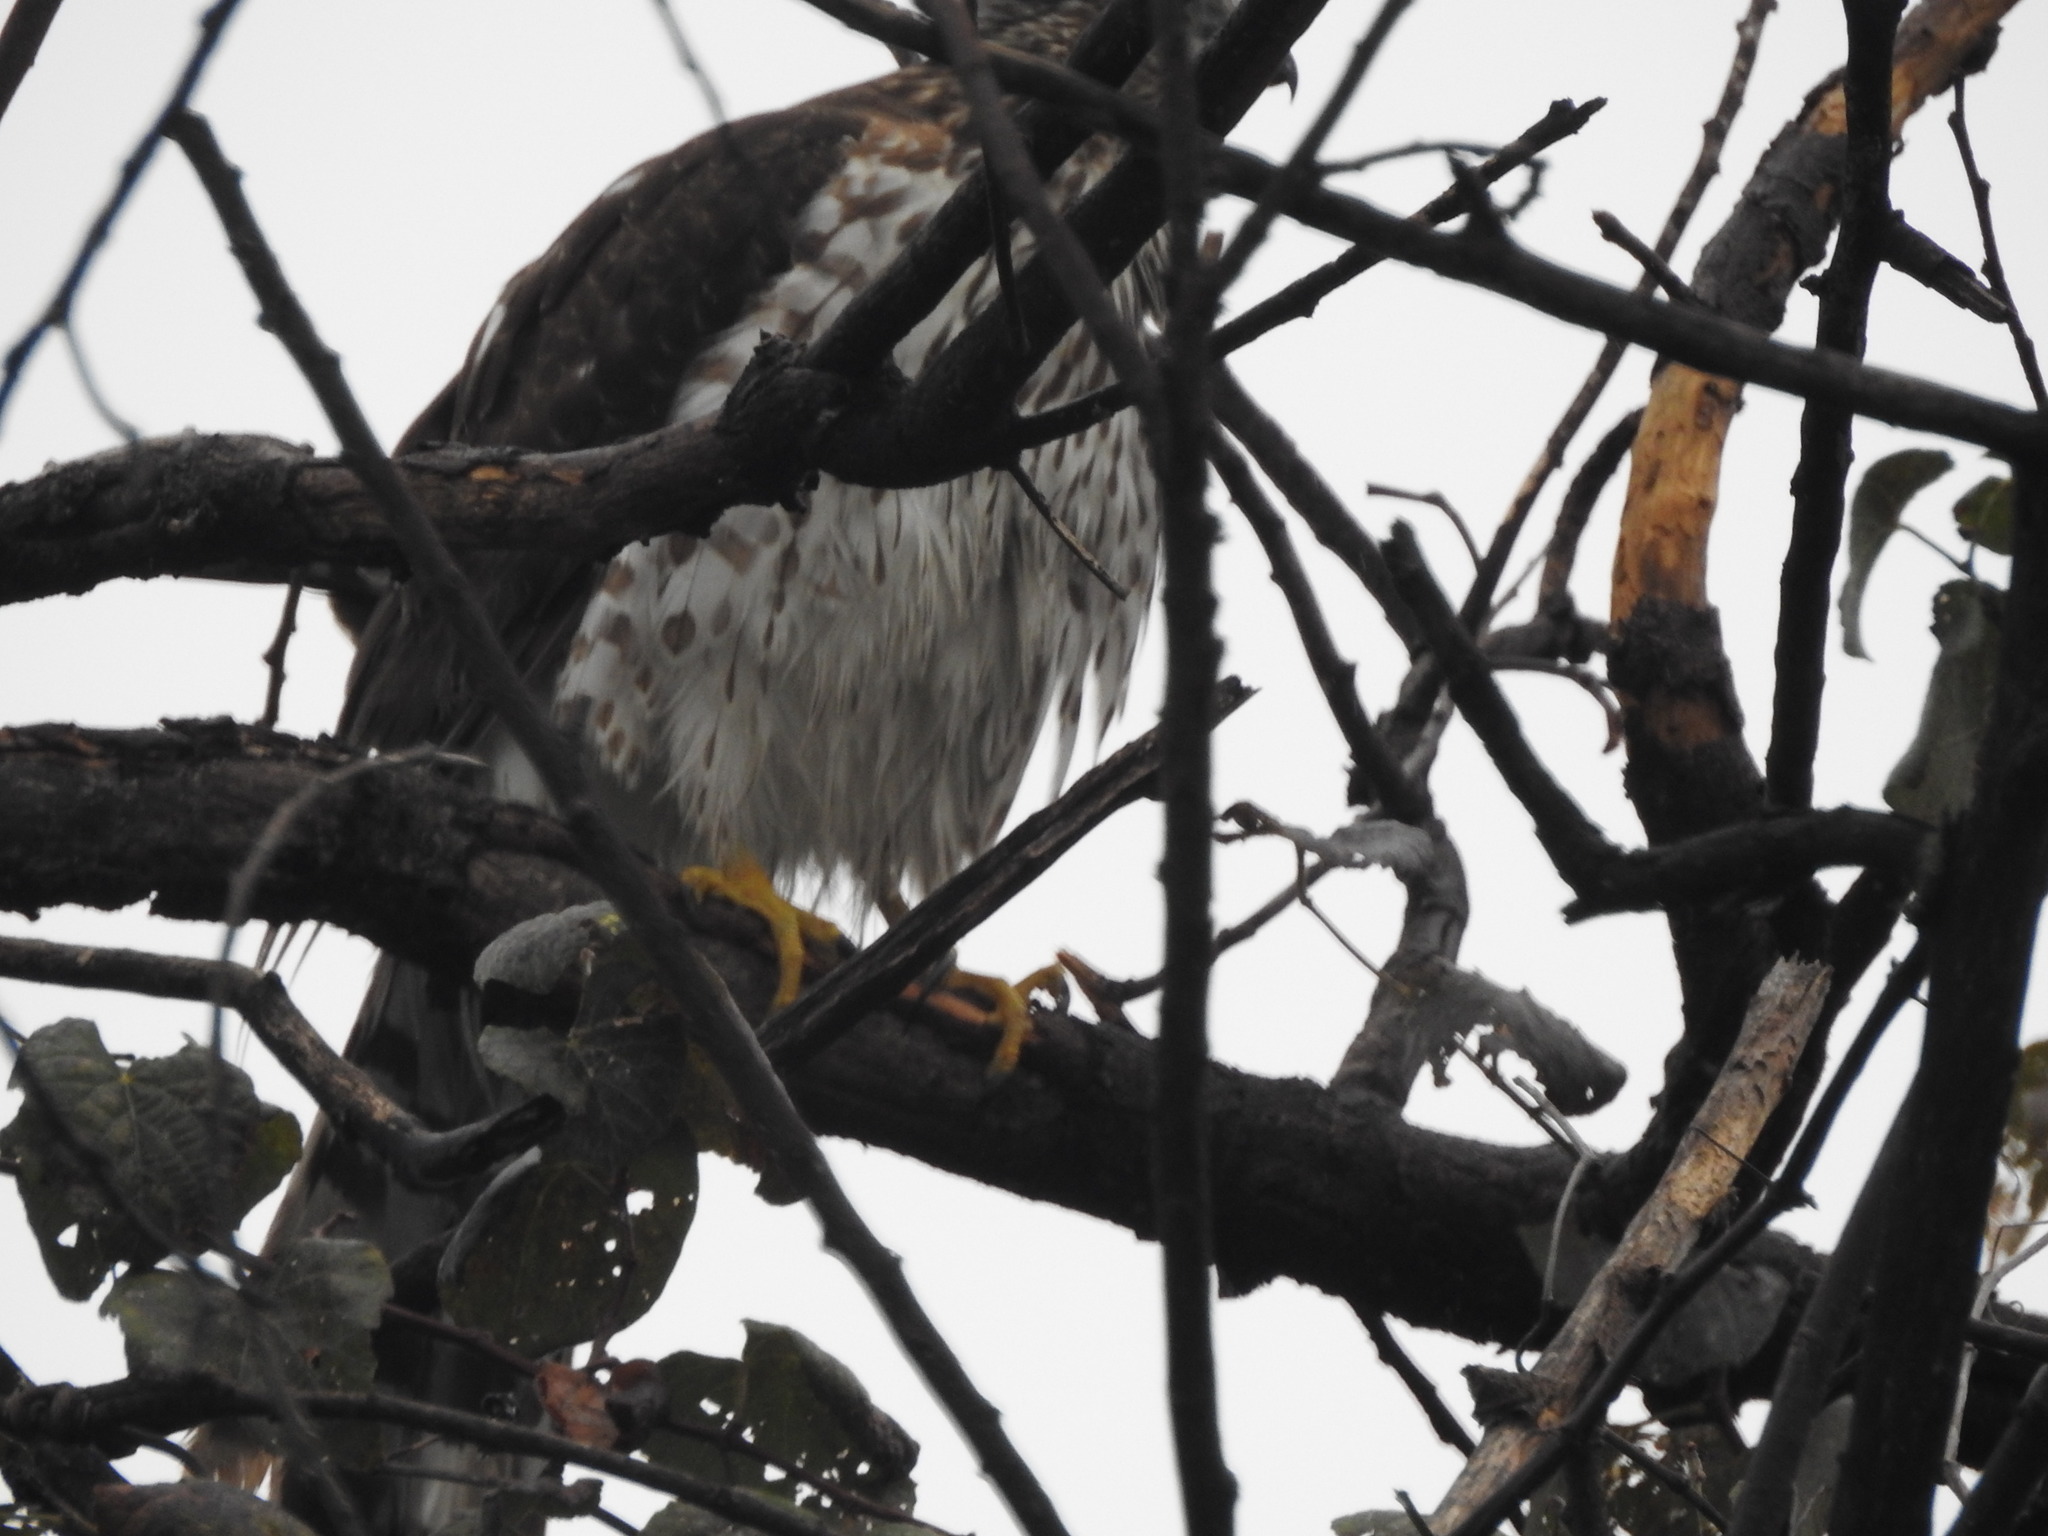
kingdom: Animalia
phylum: Chordata
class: Aves
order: Accipitriformes
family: Accipitridae
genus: Accipiter
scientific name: Accipiter cooperii
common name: Cooper's hawk
